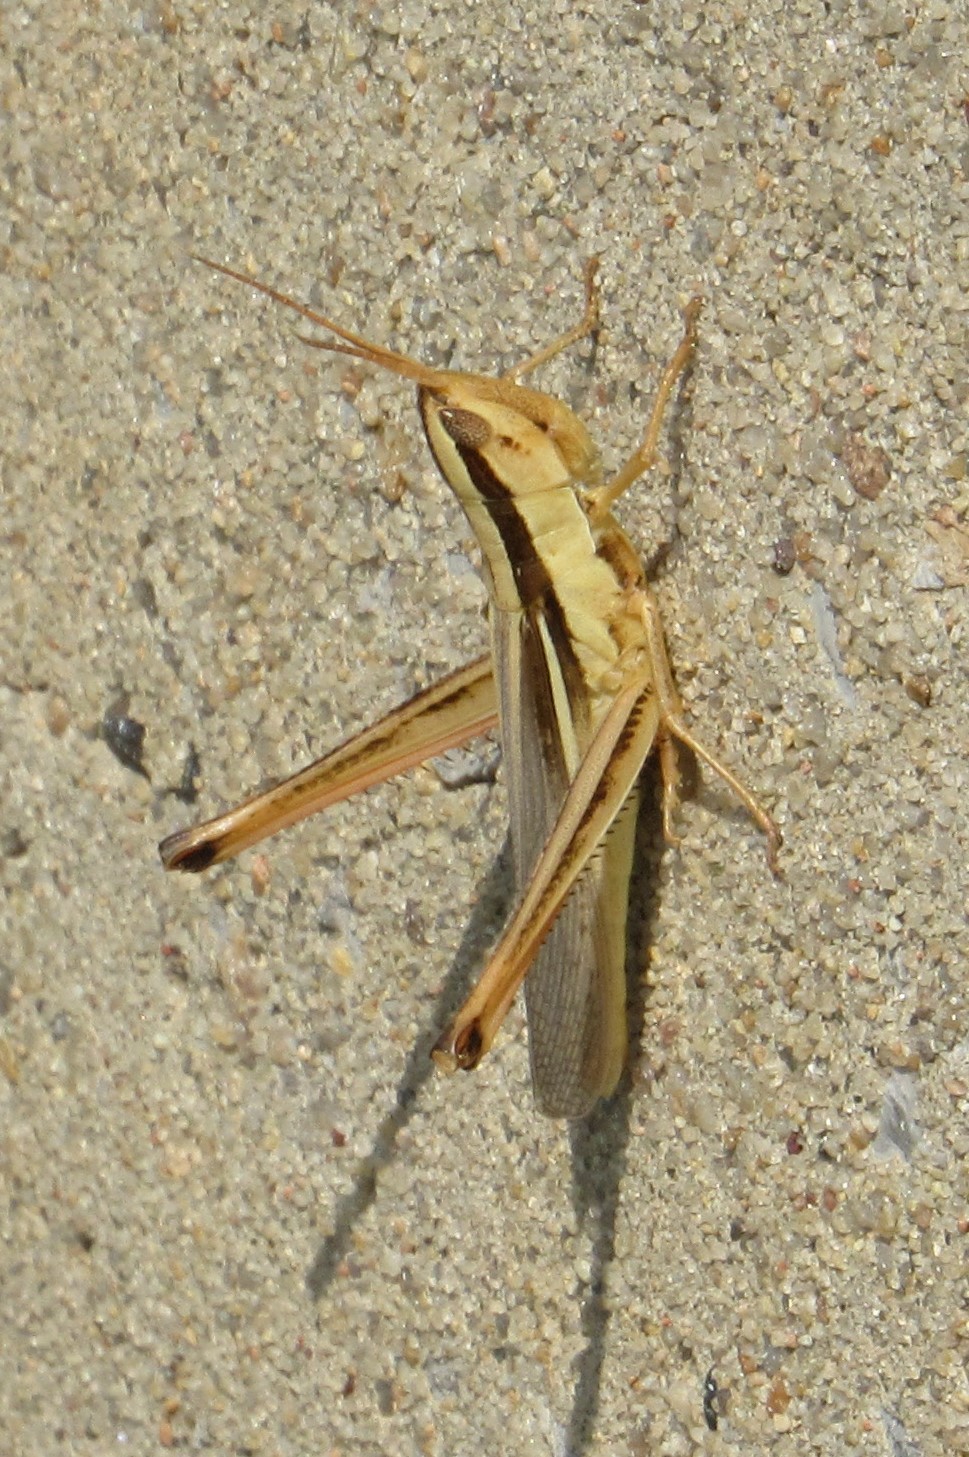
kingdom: Animalia
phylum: Arthropoda
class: Insecta
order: Orthoptera
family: Acrididae
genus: Mermiria
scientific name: Mermiria bivittata
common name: Two-striped mermiria grasshopper
